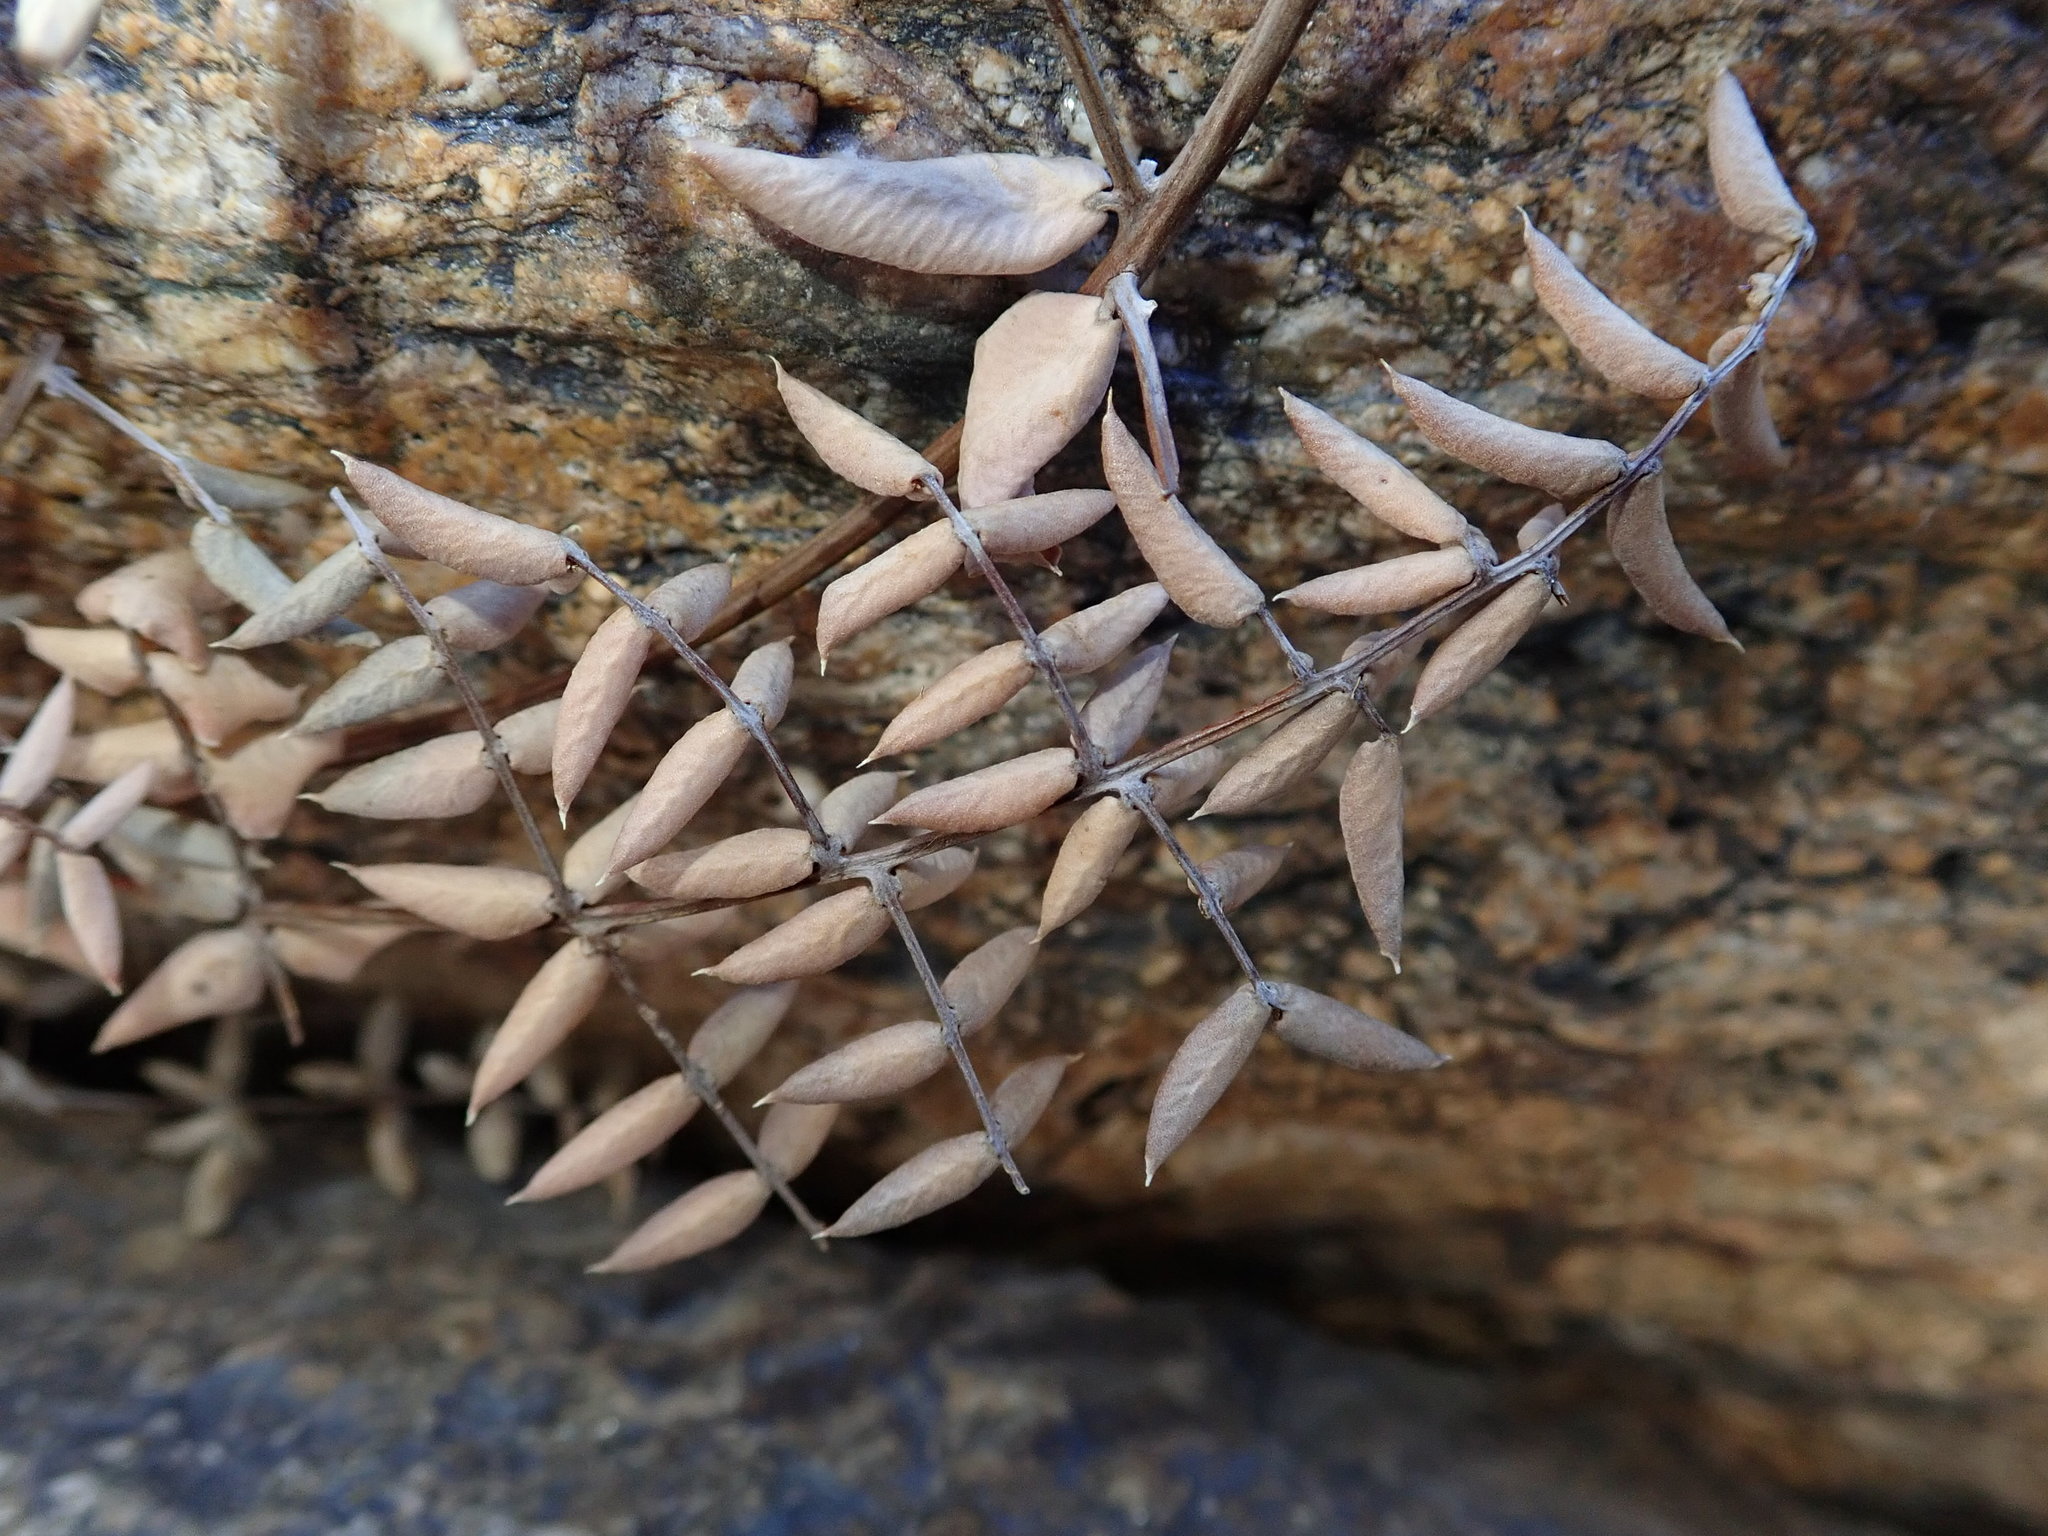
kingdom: Plantae
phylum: Tracheophyta
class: Polypodiopsida
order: Polypodiales
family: Pteridaceae
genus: Pellaea
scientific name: Pellaea truncata
